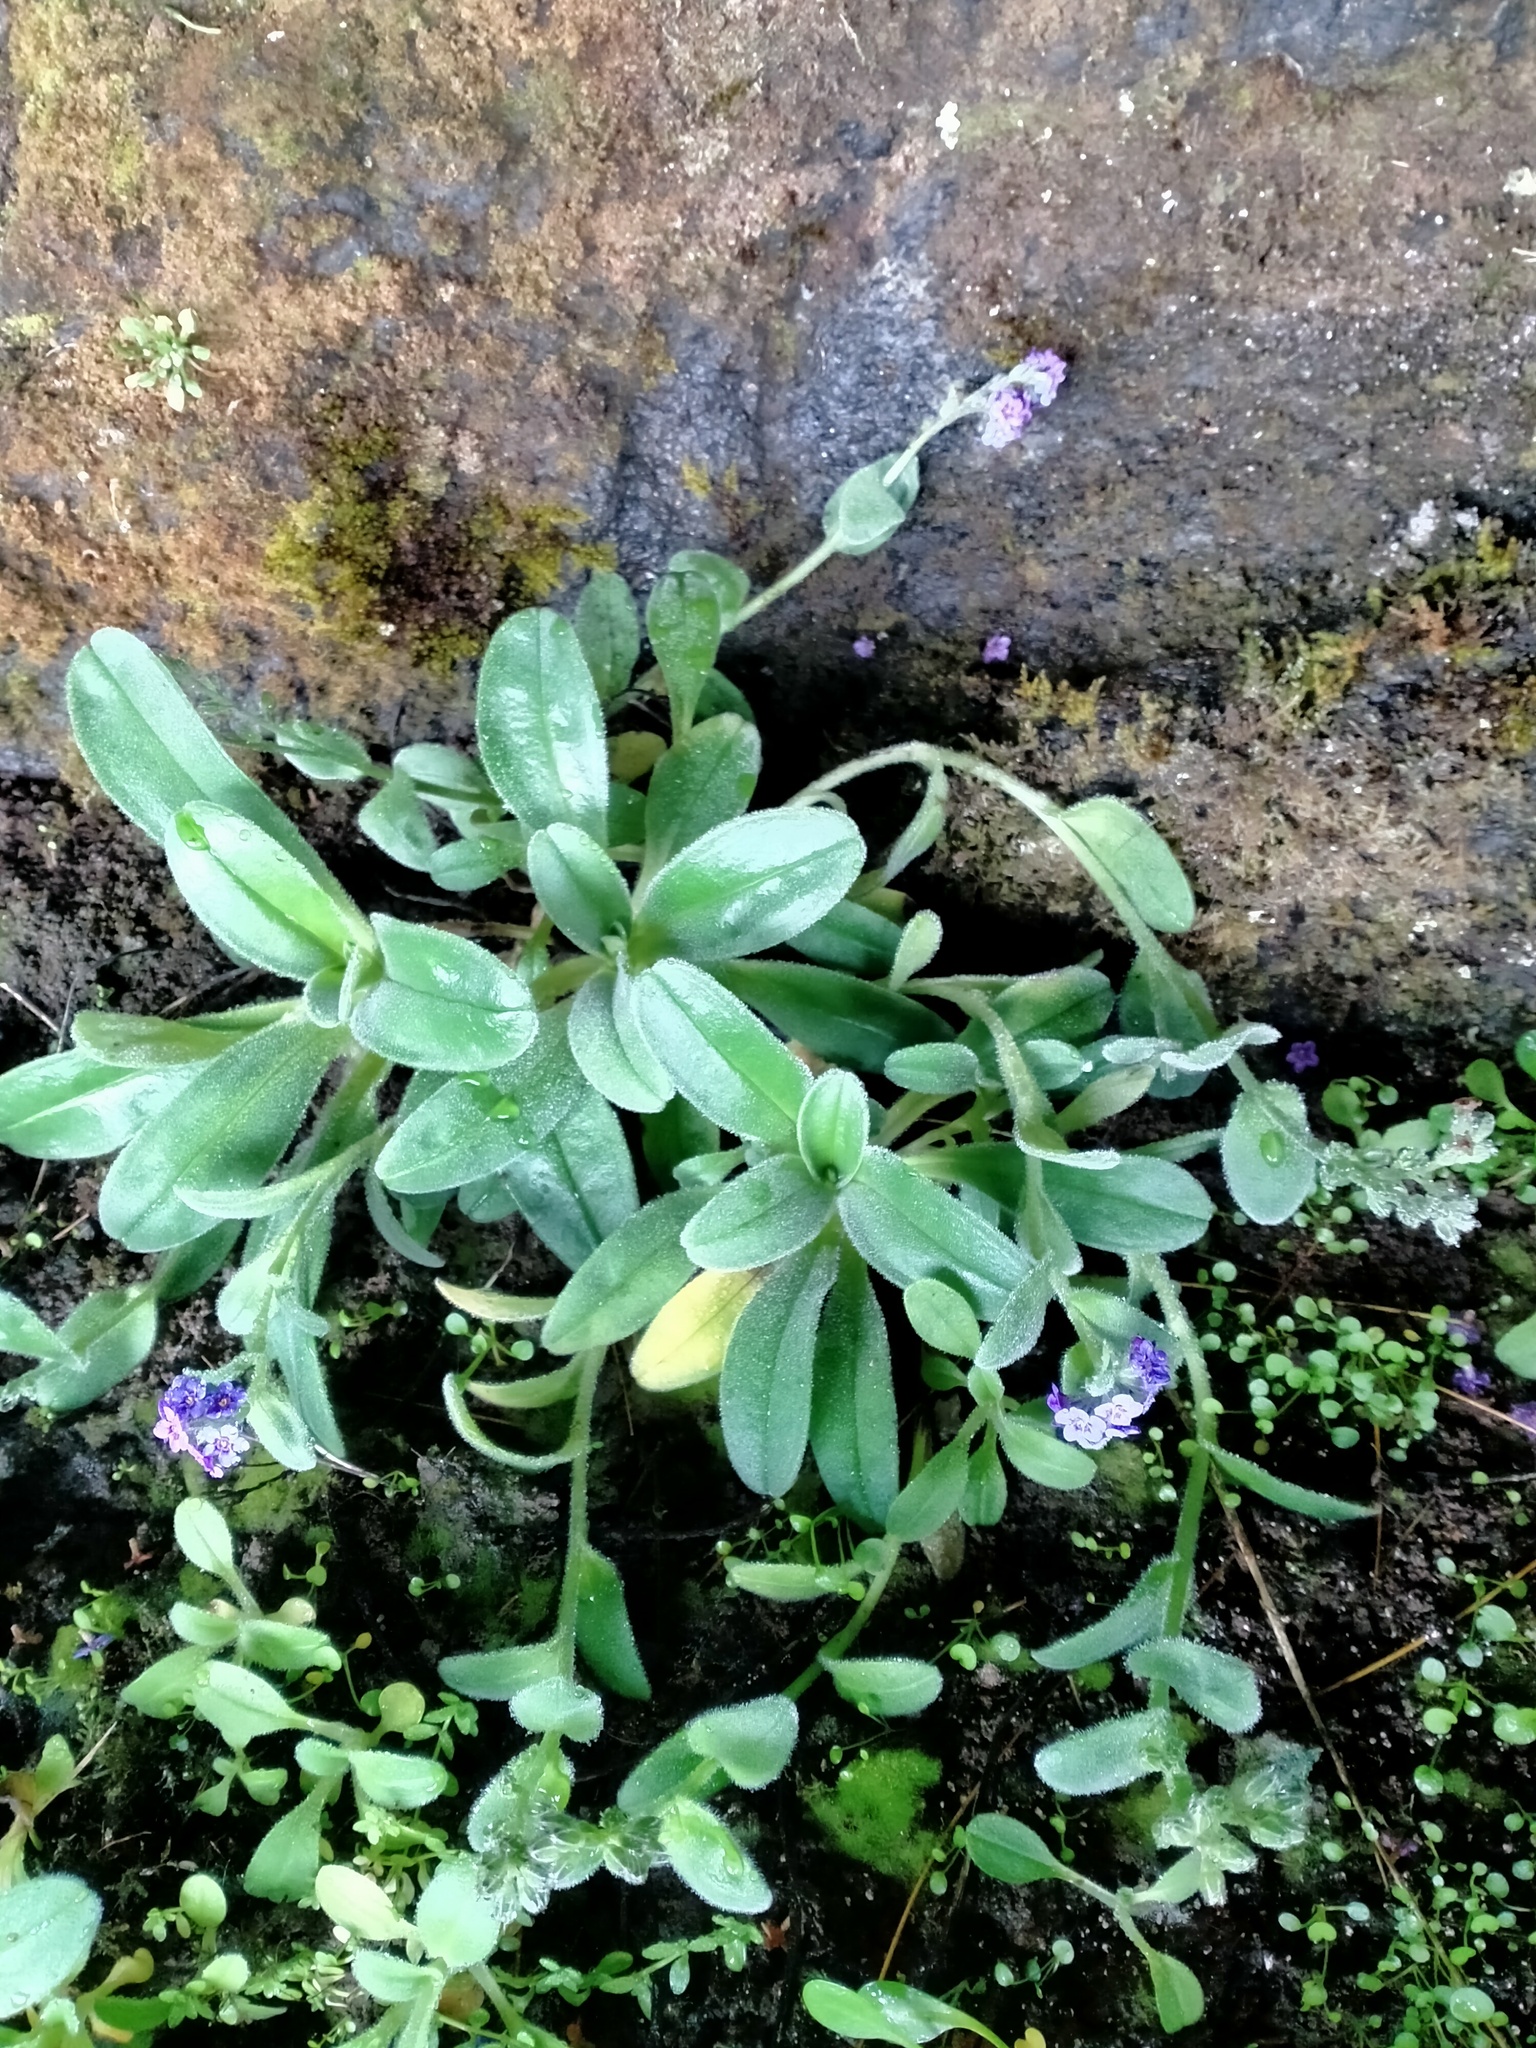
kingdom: Plantae
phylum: Tracheophyta
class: Magnoliopsida
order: Boraginales
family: Boraginaceae
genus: Myosotis
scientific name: Myosotis capitata
